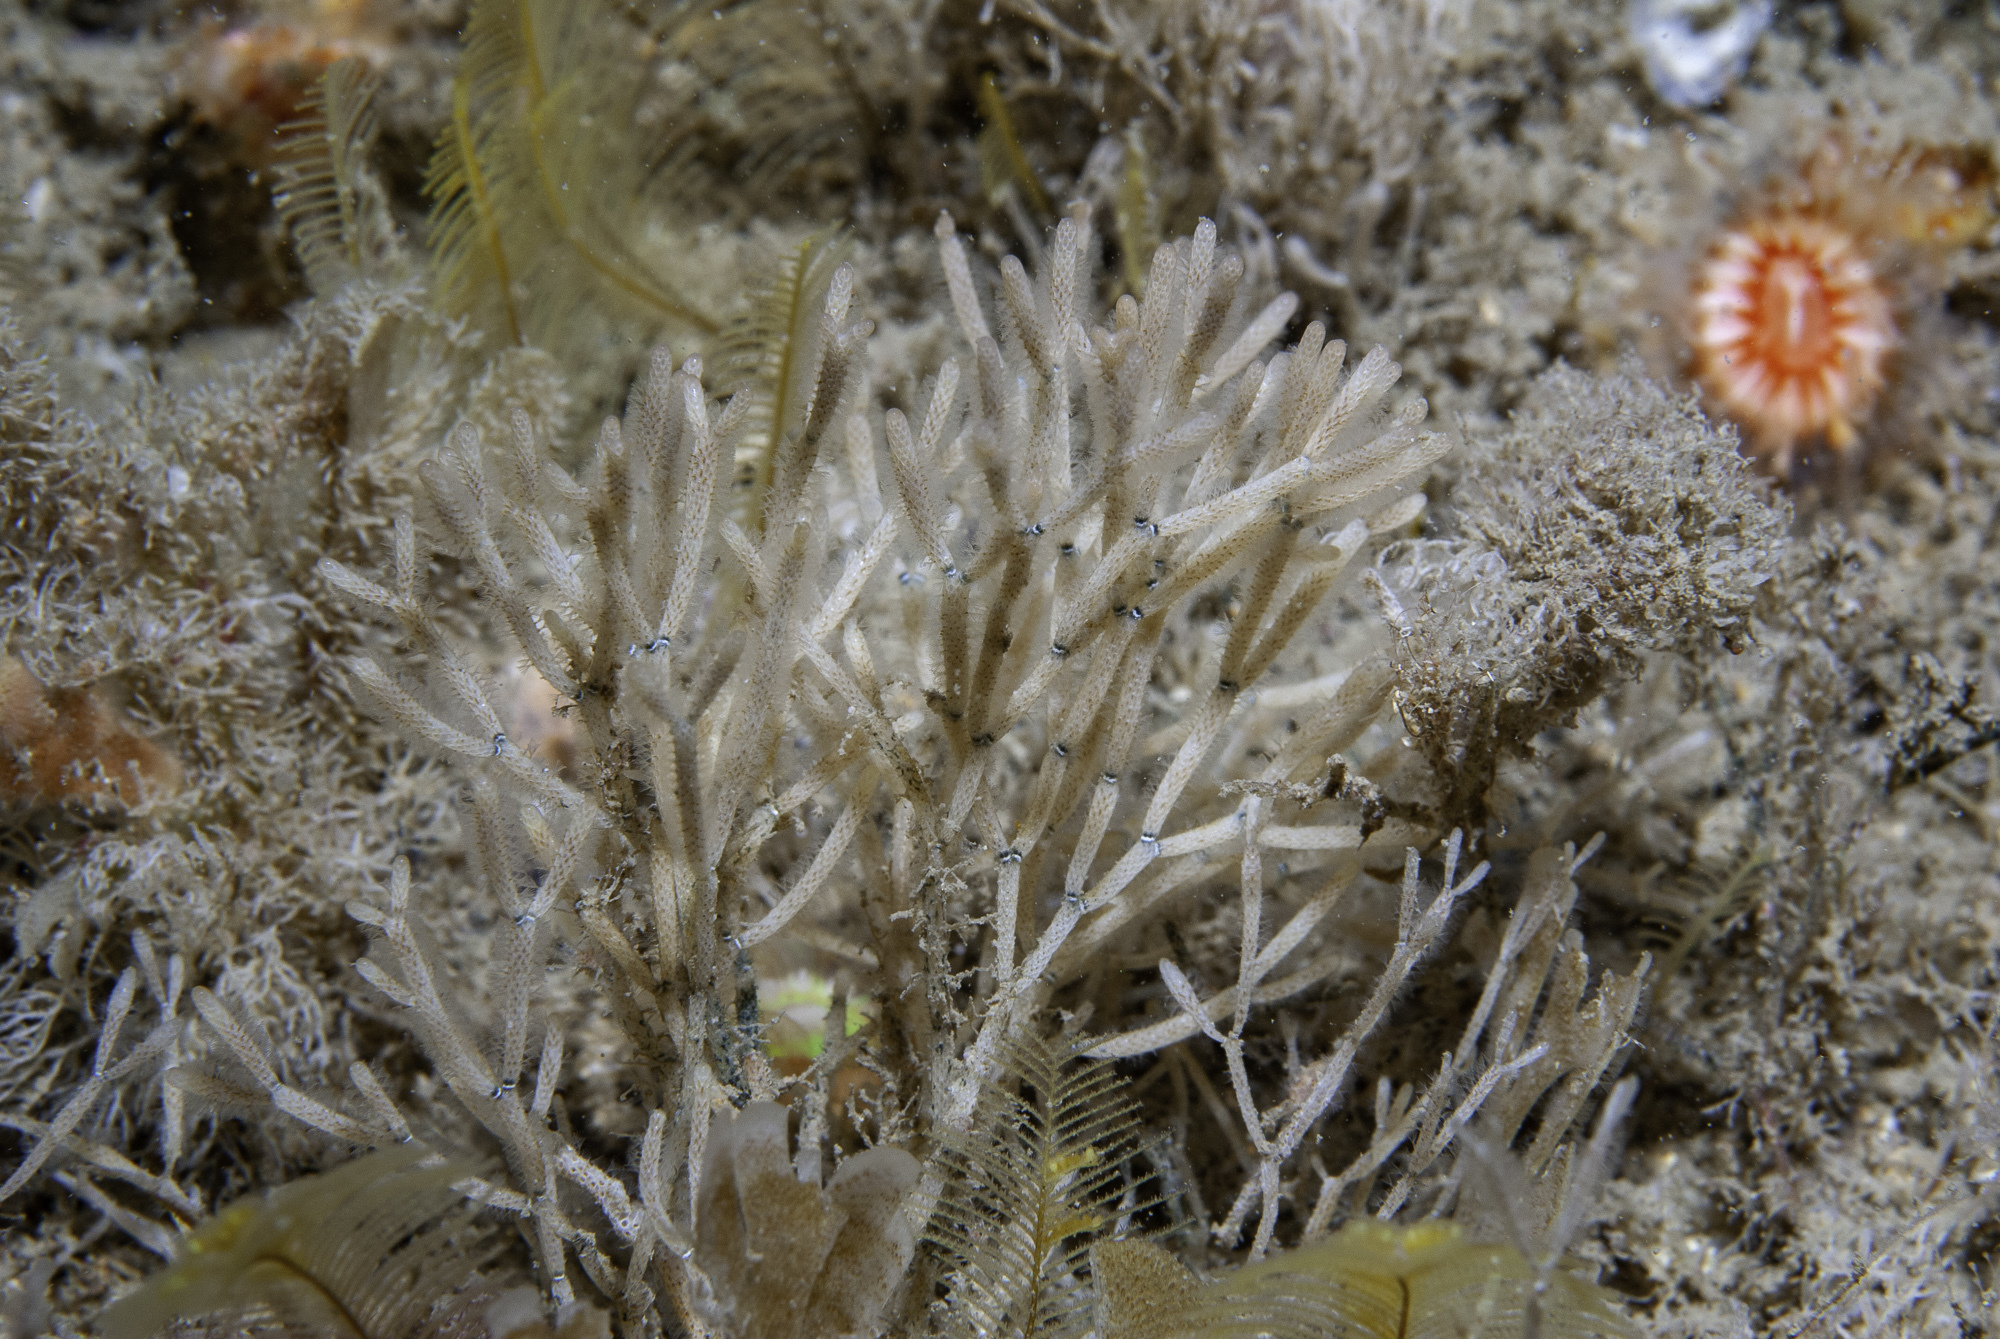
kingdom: Animalia
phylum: Bryozoa
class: Gymnolaemata
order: Cheilostomatida
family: Cellariidae
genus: Cellaria
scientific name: Cellaria sinuosa
